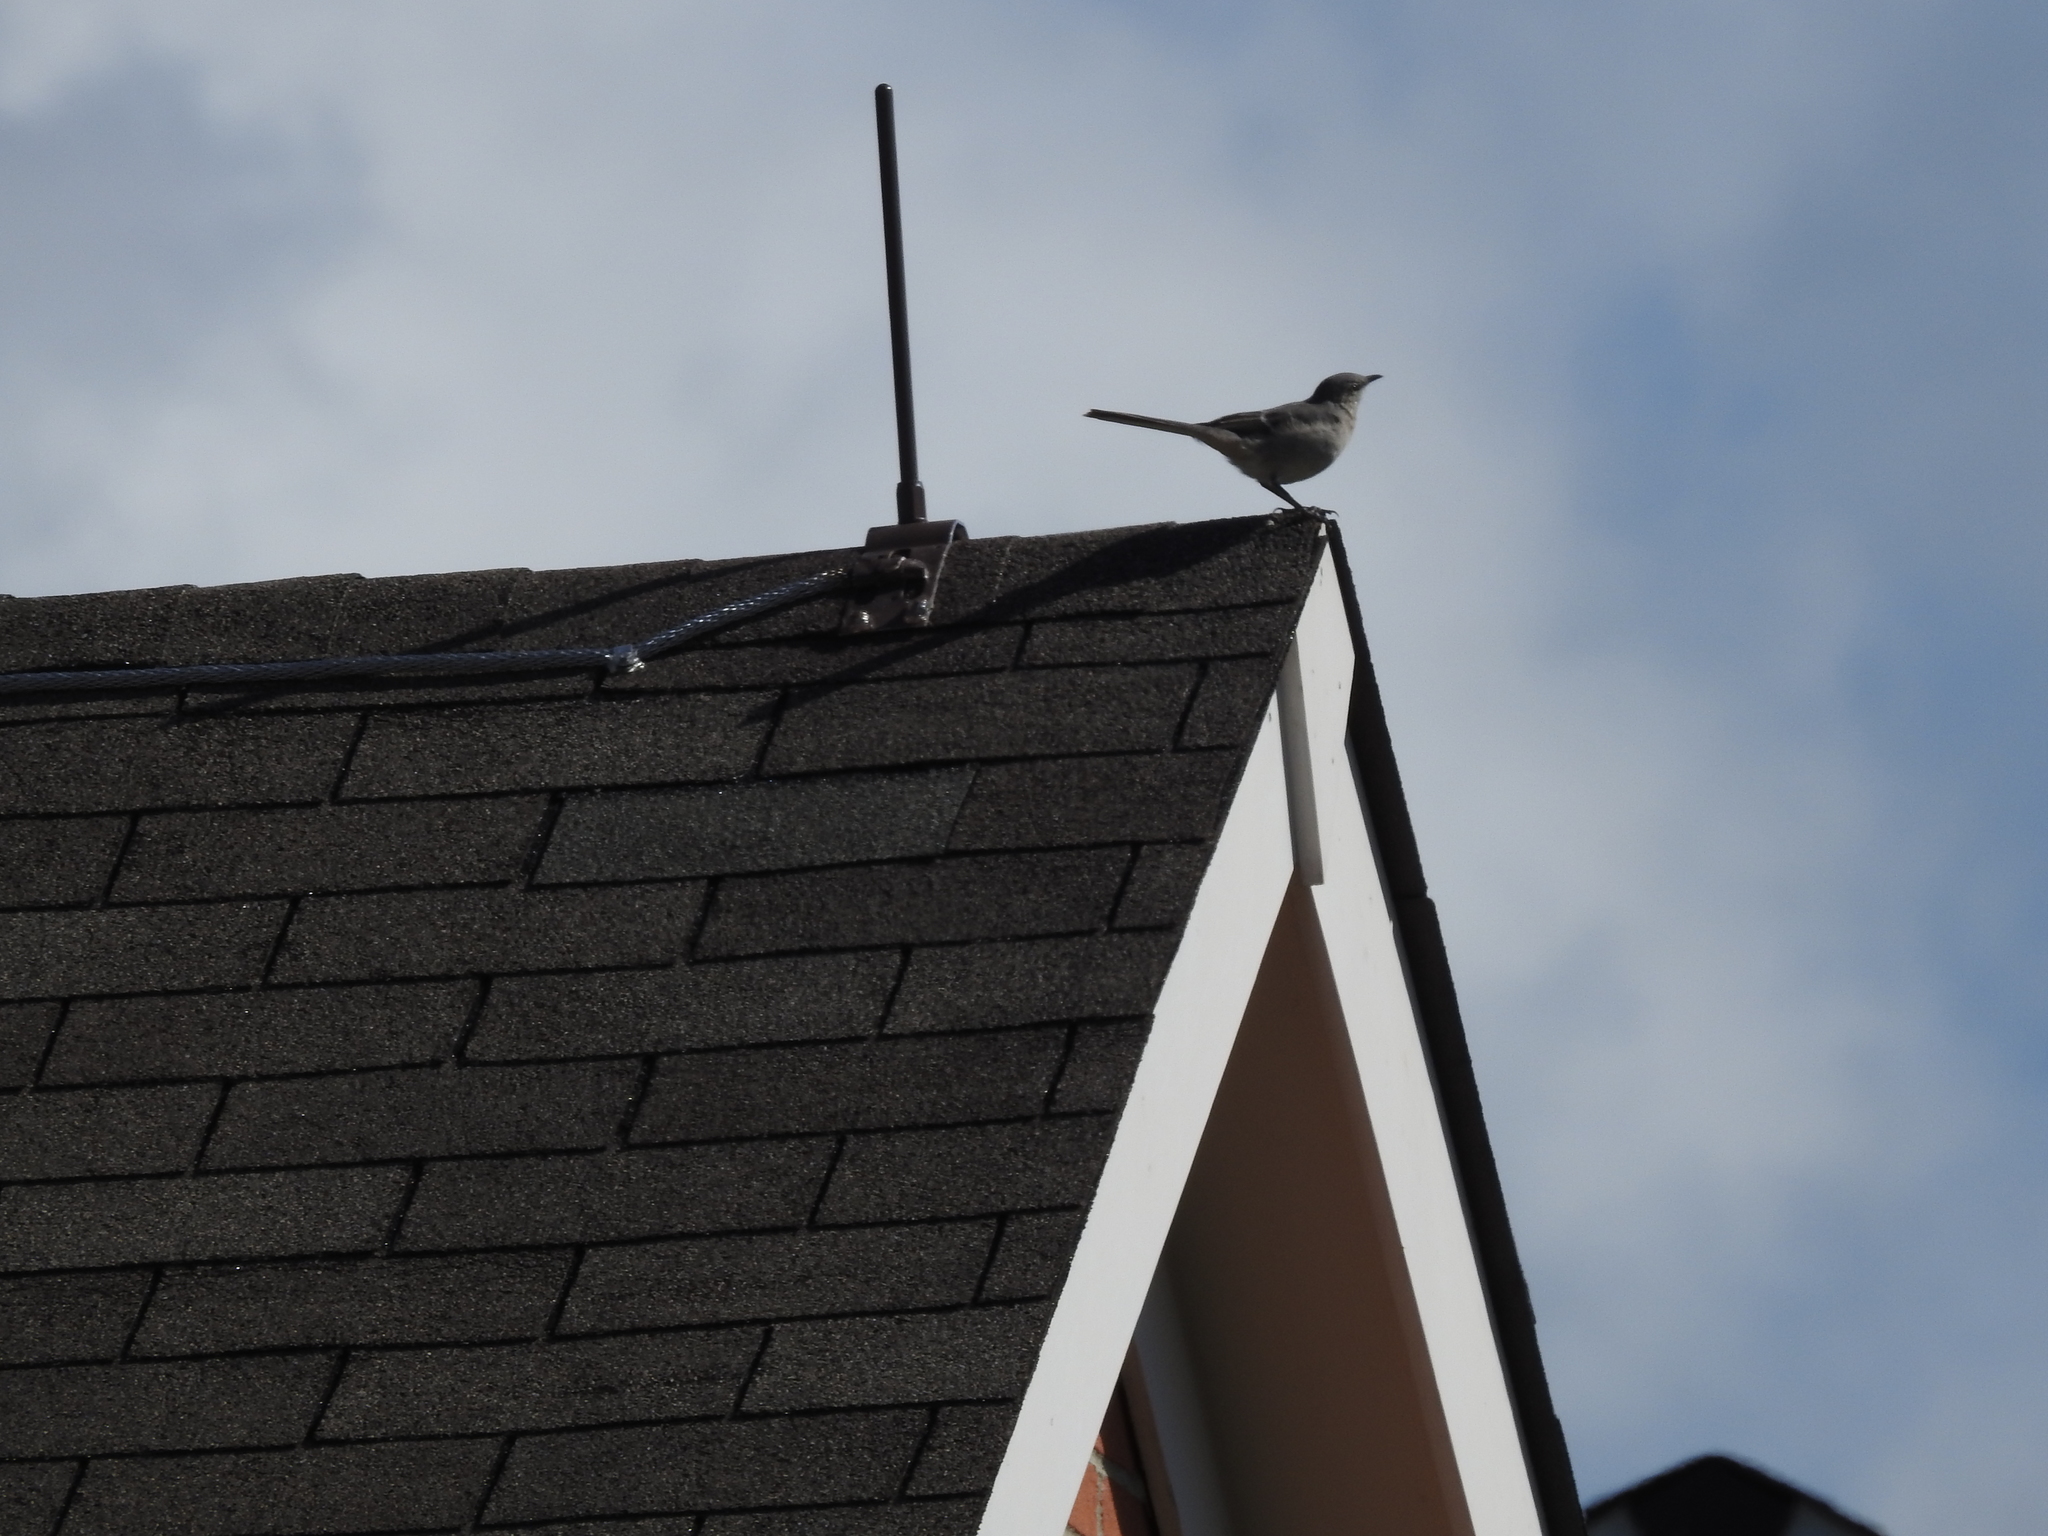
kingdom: Animalia
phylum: Chordata
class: Aves
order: Passeriformes
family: Mimidae
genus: Mimus
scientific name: Mimus polyglottos
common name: Northern mockingbird
